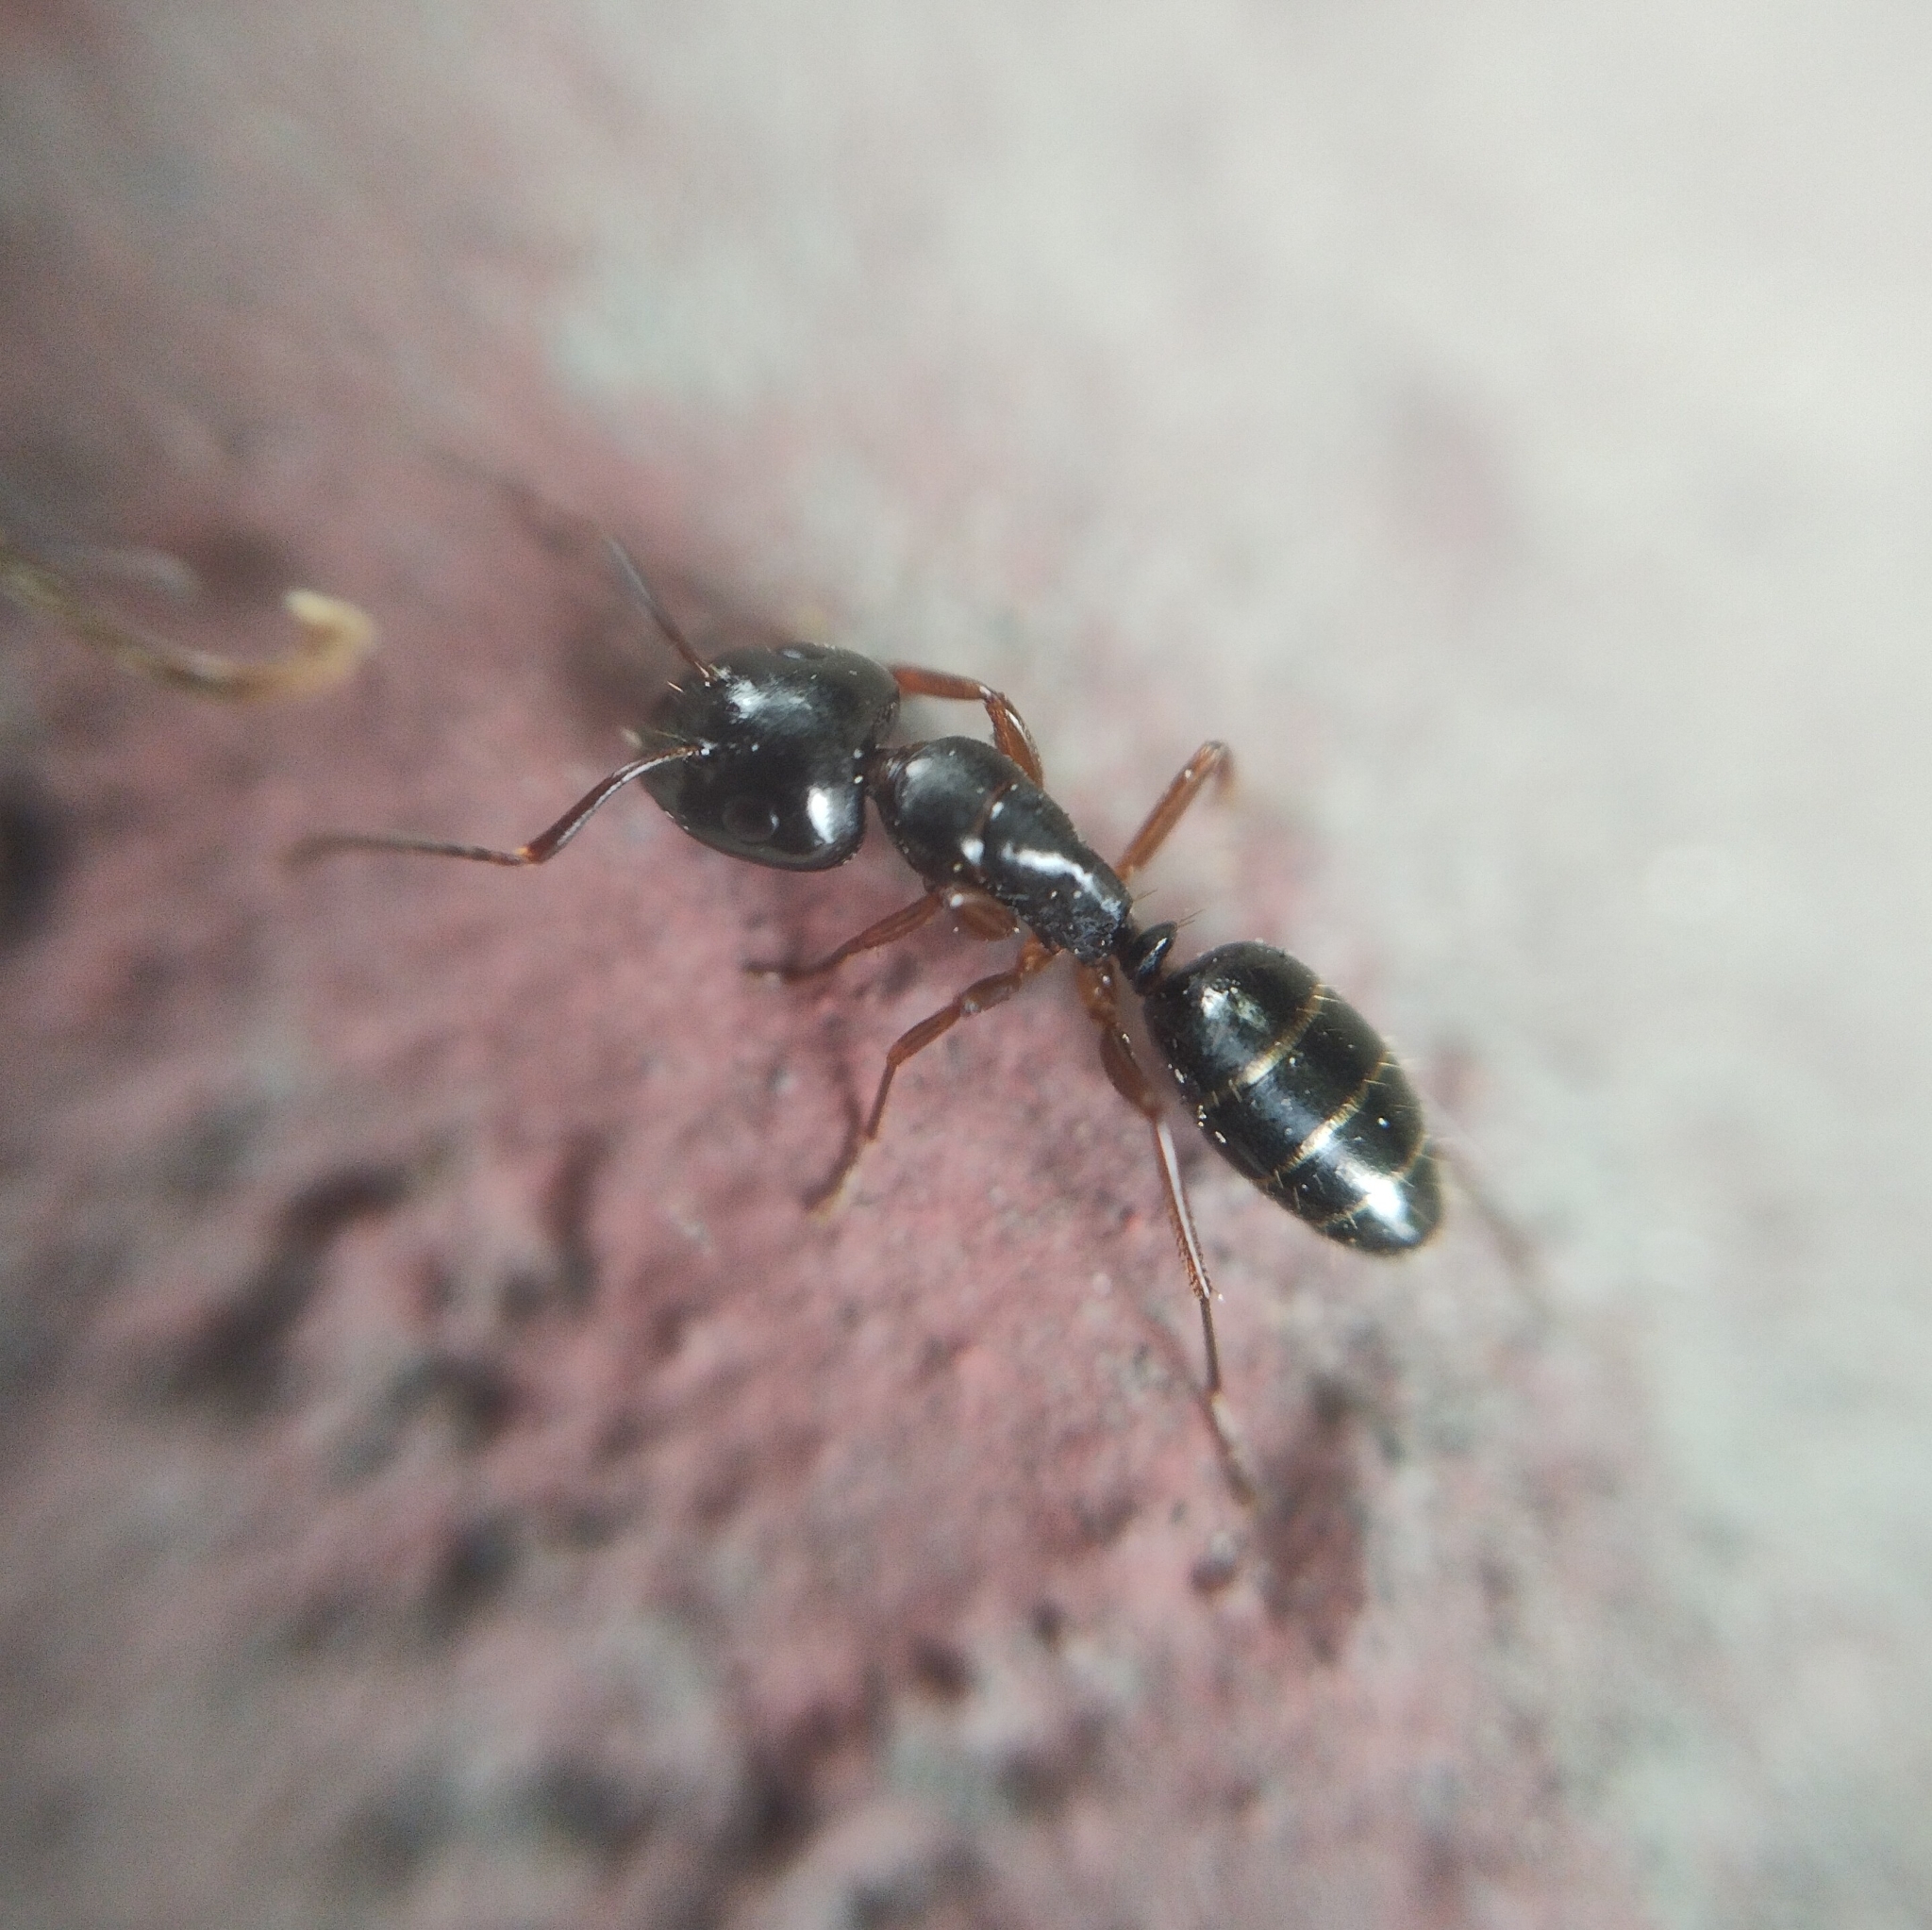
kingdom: Animalia
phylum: Arthropoda
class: Insecta
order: Hymenoptera
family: Formicidae
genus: Camponotus
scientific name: Camponotus fallax
